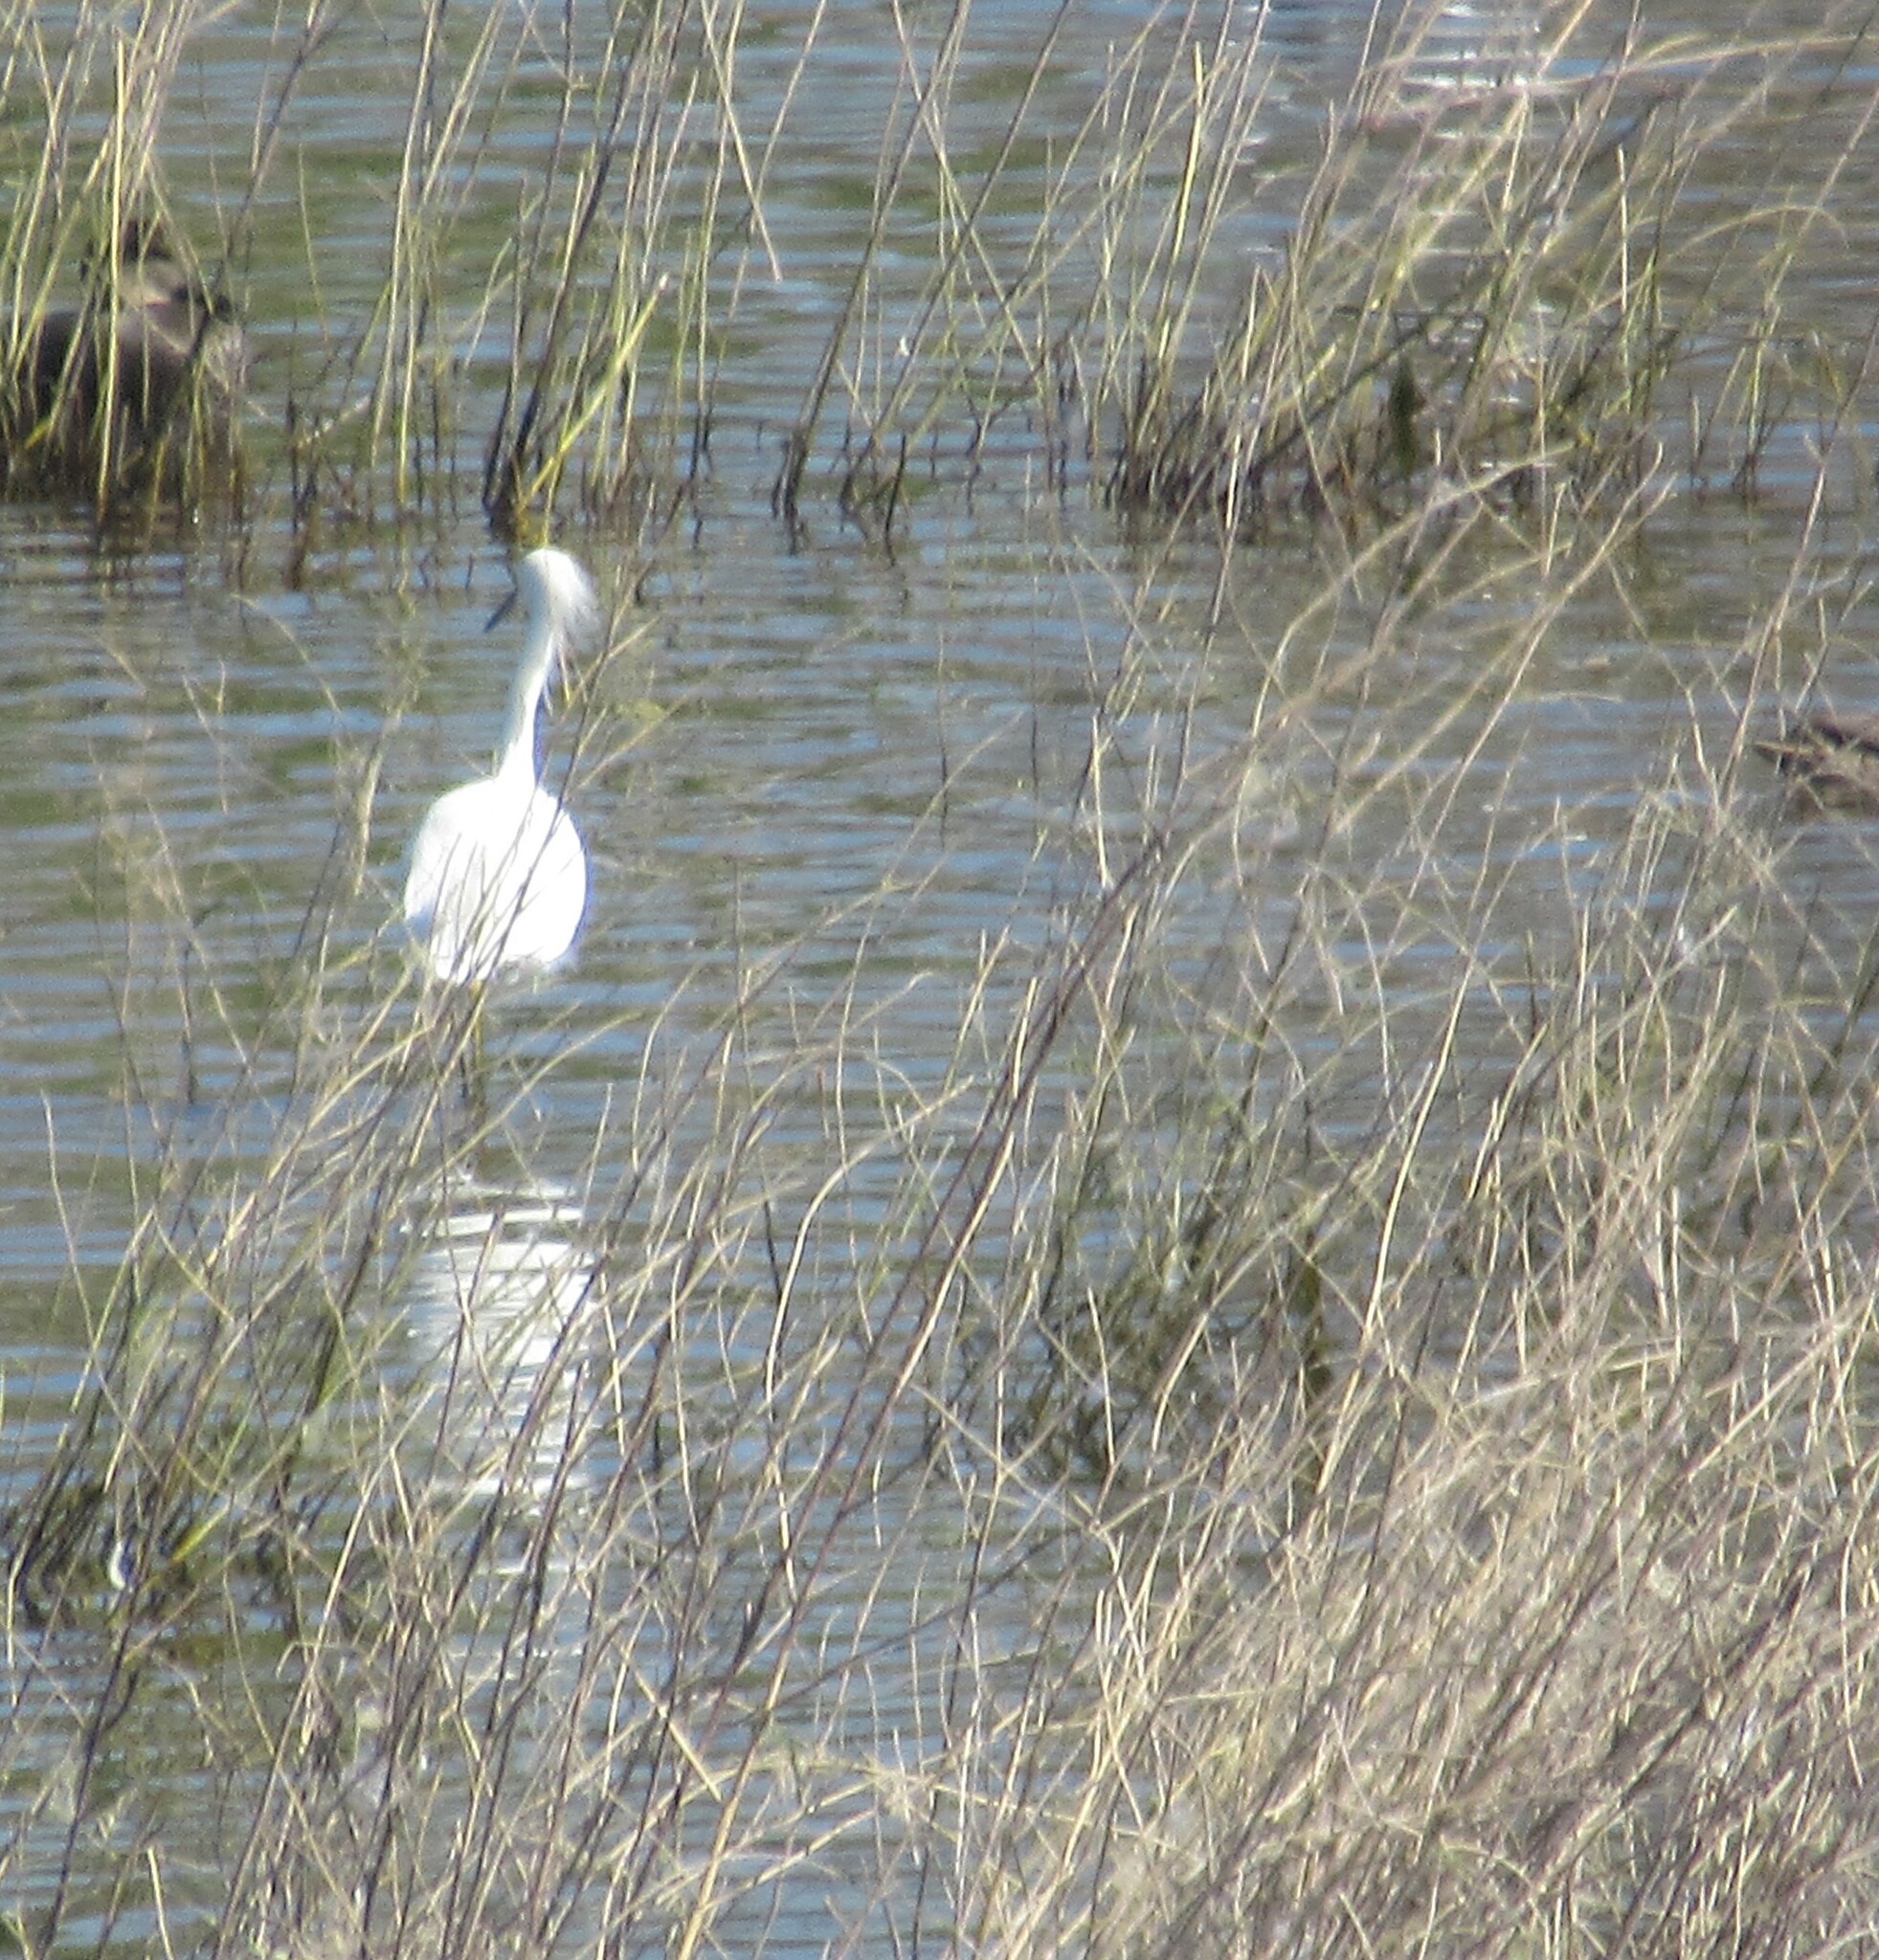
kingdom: Animalia
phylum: Chordata
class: Aves
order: Pelecaniformes
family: Ardeidae
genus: Egretta
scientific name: Egretta thula
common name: Snowy egret
